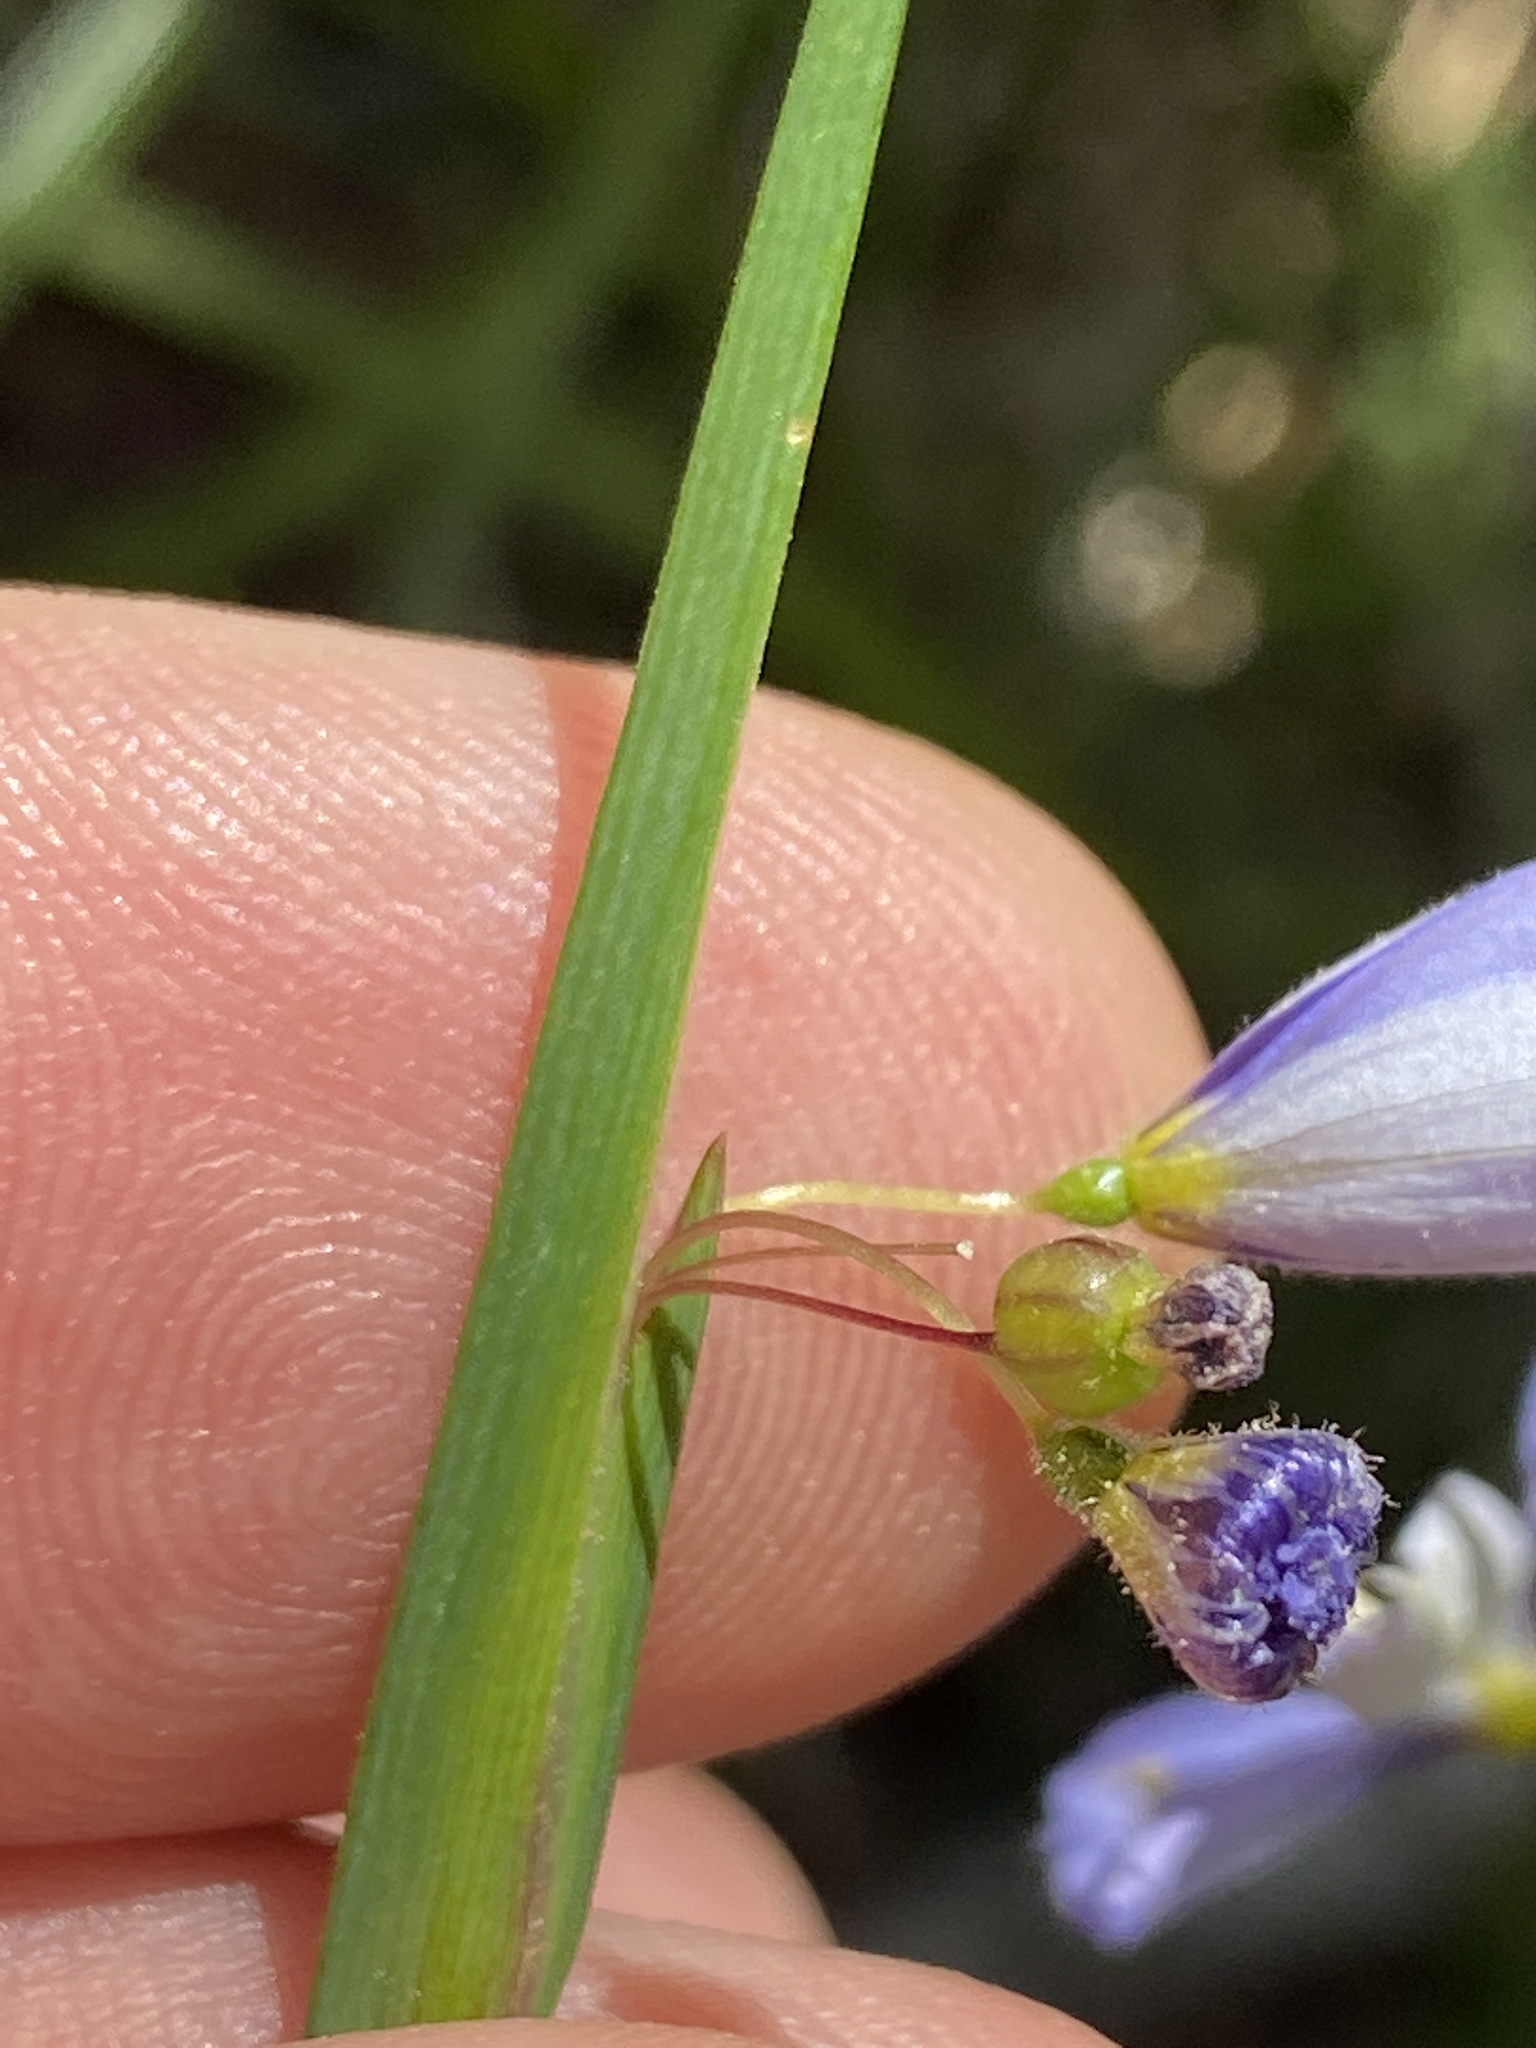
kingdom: Plantae
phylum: Tracheophyta
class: Liliopsida
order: Asparagales
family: Iridaceae
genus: Sisyrinchium
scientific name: Sisyrinchium angustifolium
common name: Narrow-leaf blue-eyed-grass
